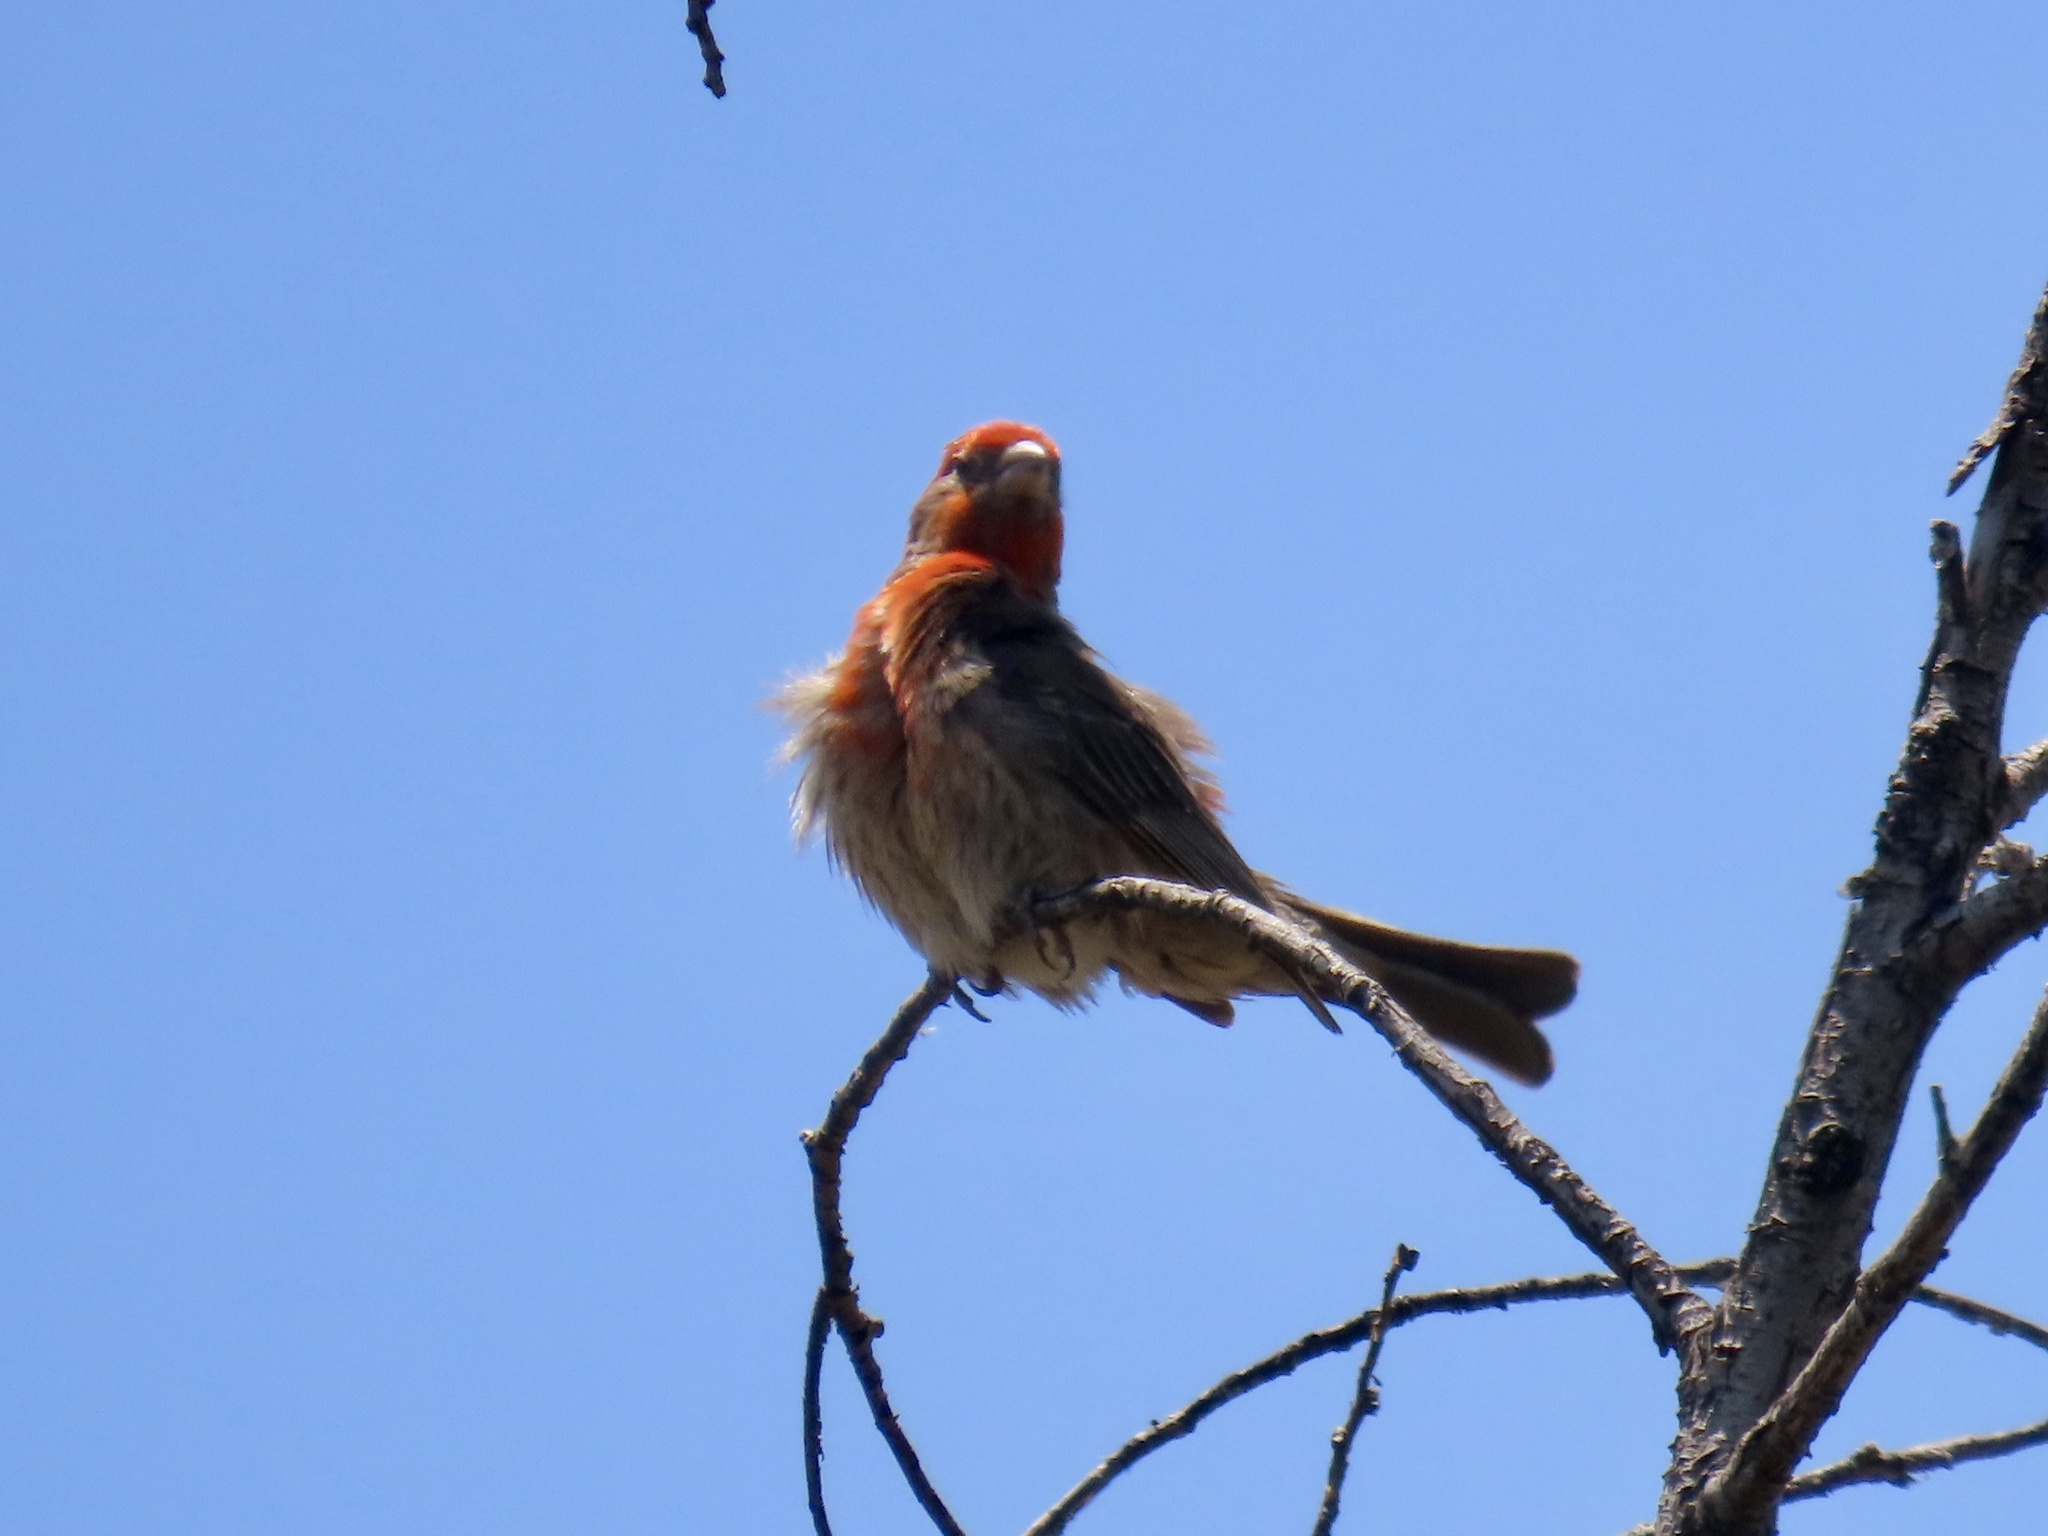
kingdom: Animalia
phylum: Chordata
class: Aves
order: Passeriformes
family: Fringillidae
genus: Haemorhous
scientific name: Haemorhous mexicanus
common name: House finch
